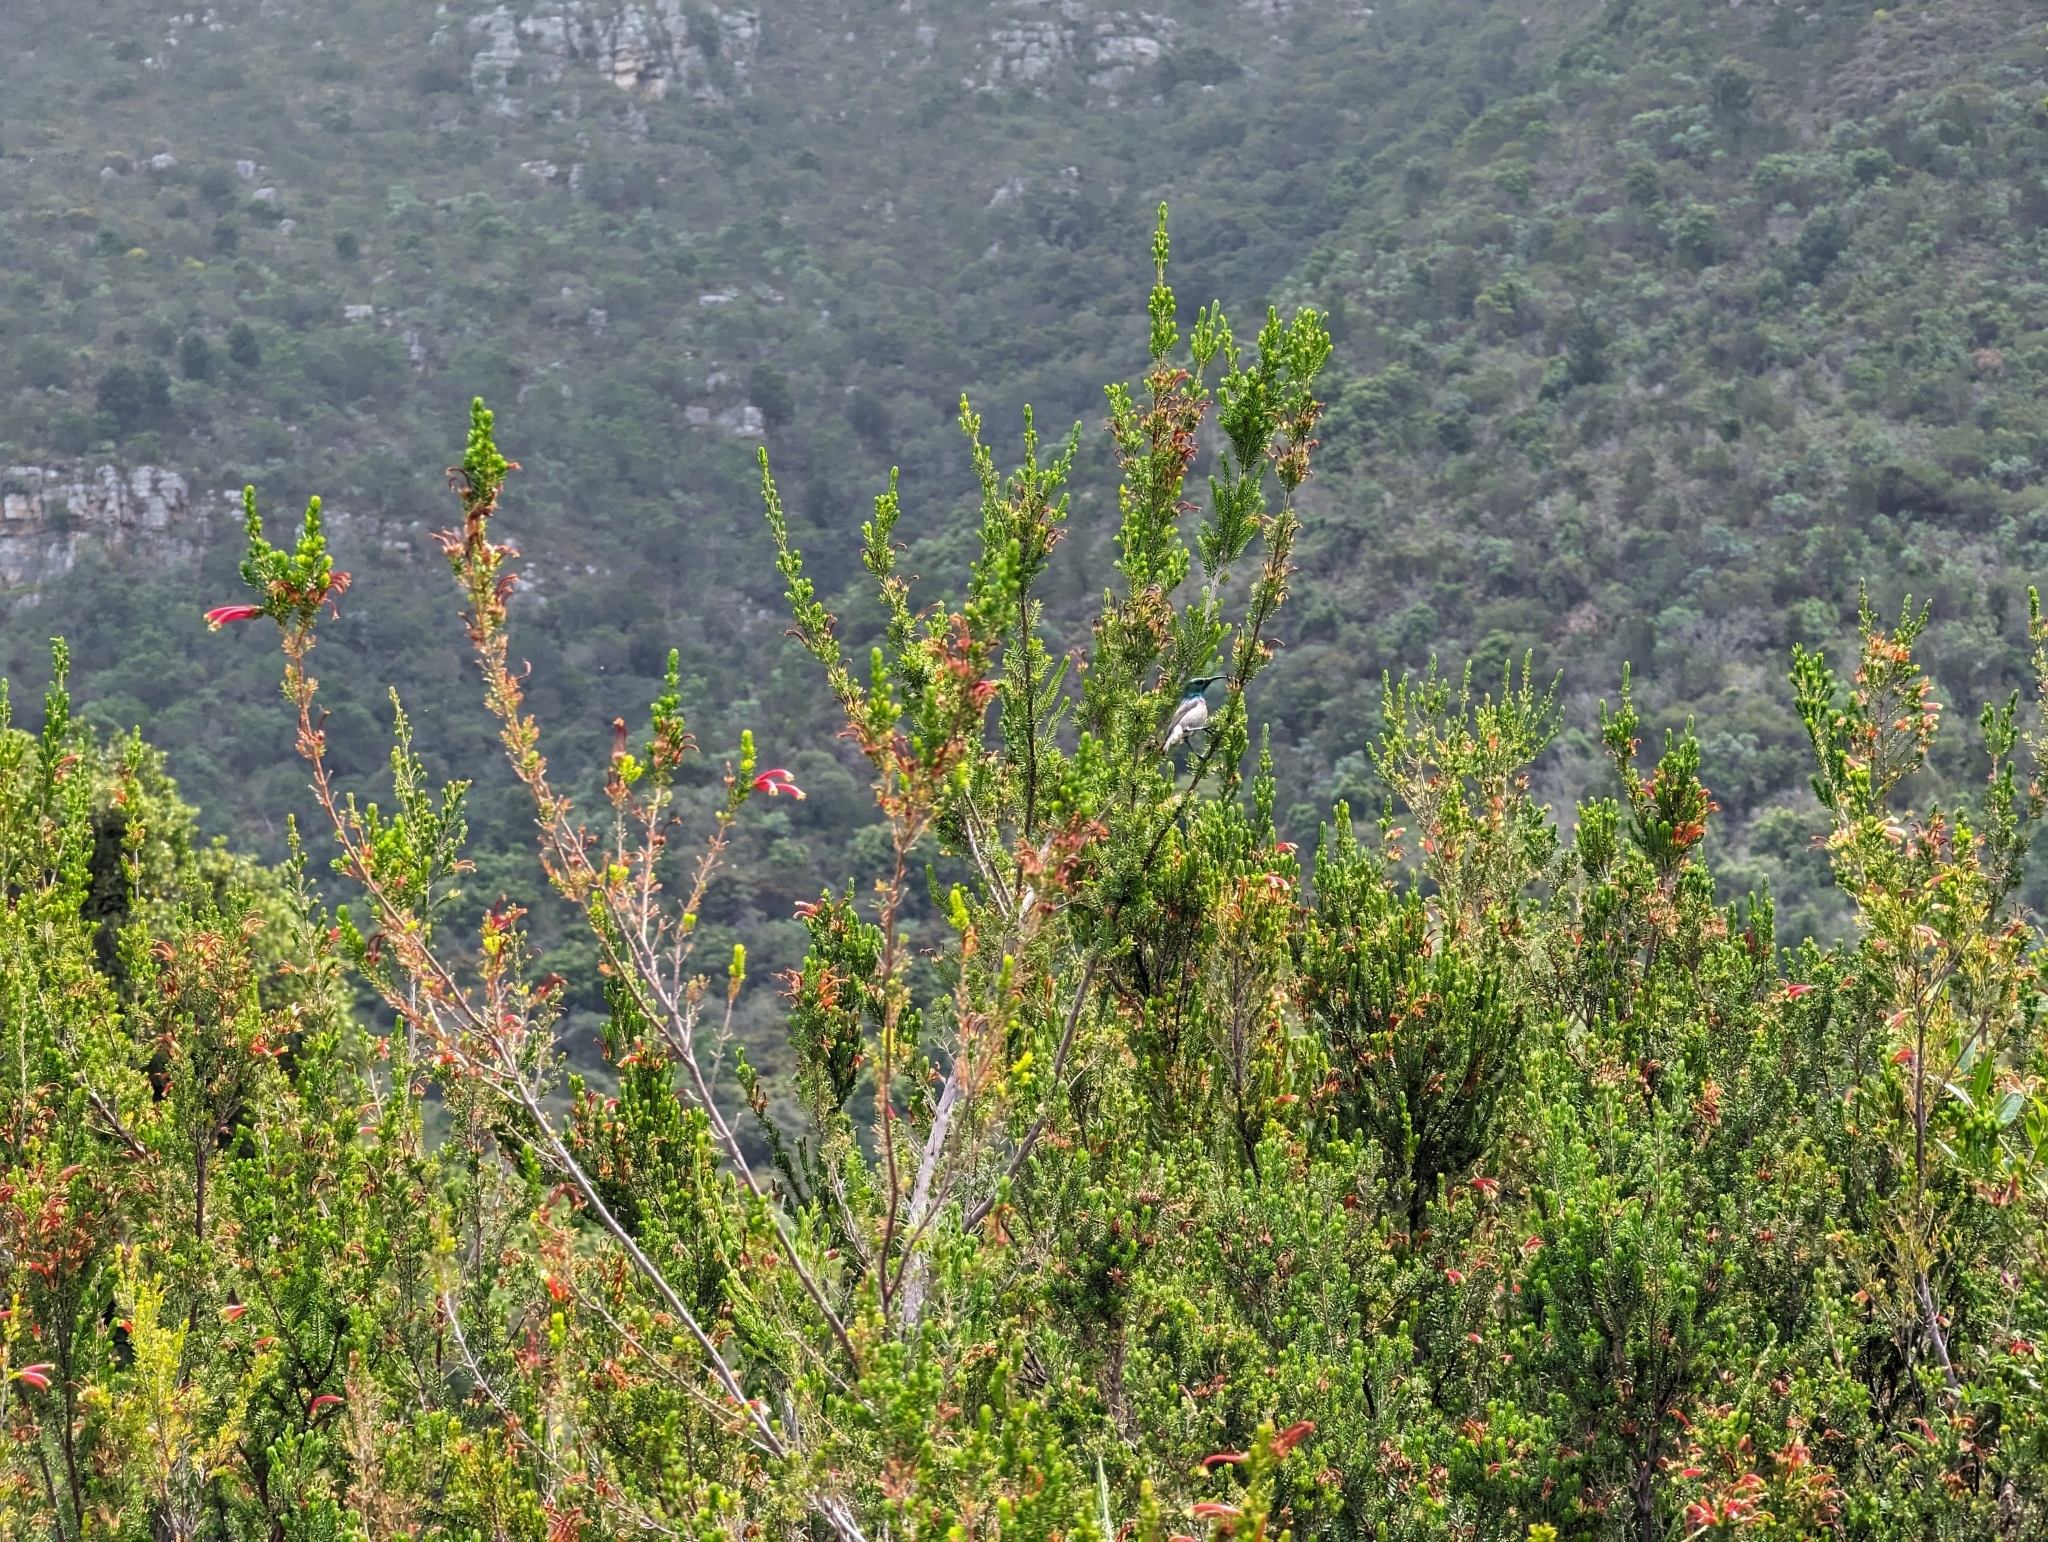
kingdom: Animalia
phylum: Chordata
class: Aves
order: Passeriformes
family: Nectariniidae
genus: Cinnyris
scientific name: Cinnyris chalybeus
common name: Southern double-collared sunbird
